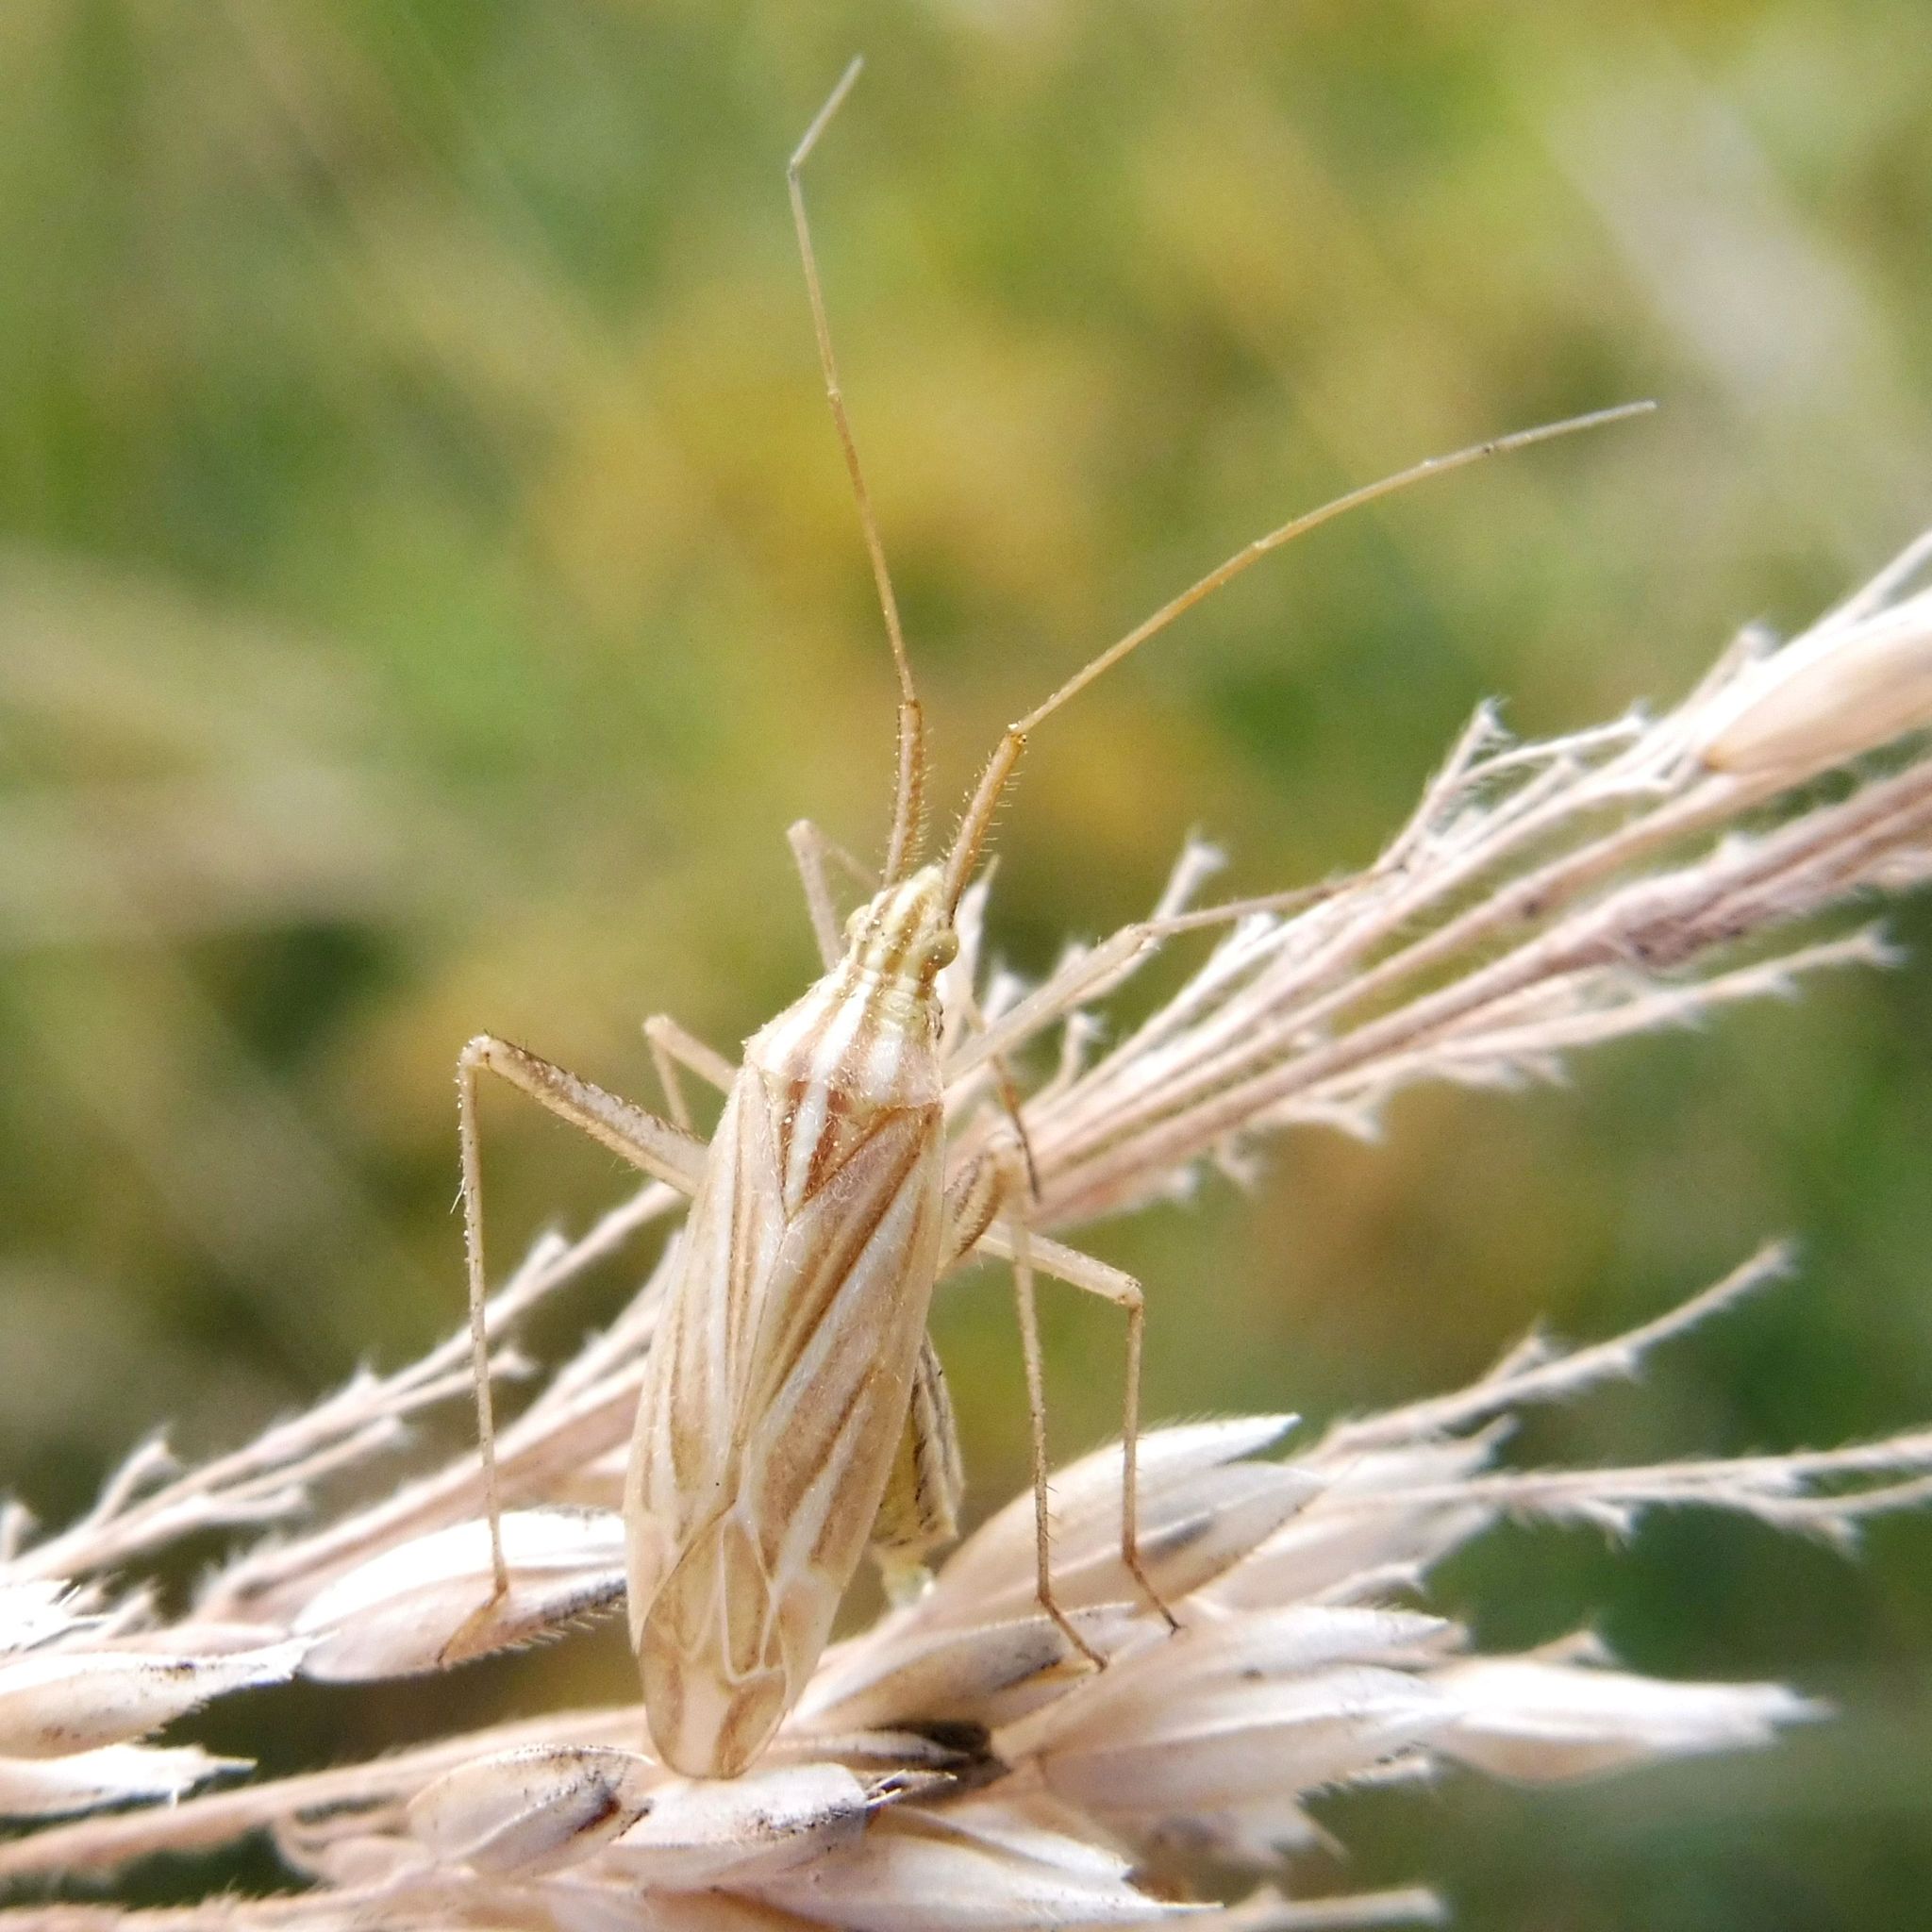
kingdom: Animalia
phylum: Arthropoda
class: Insecta
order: Hemiptera
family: Miridae
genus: Miridius
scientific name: Miridius quadrivirgatus
